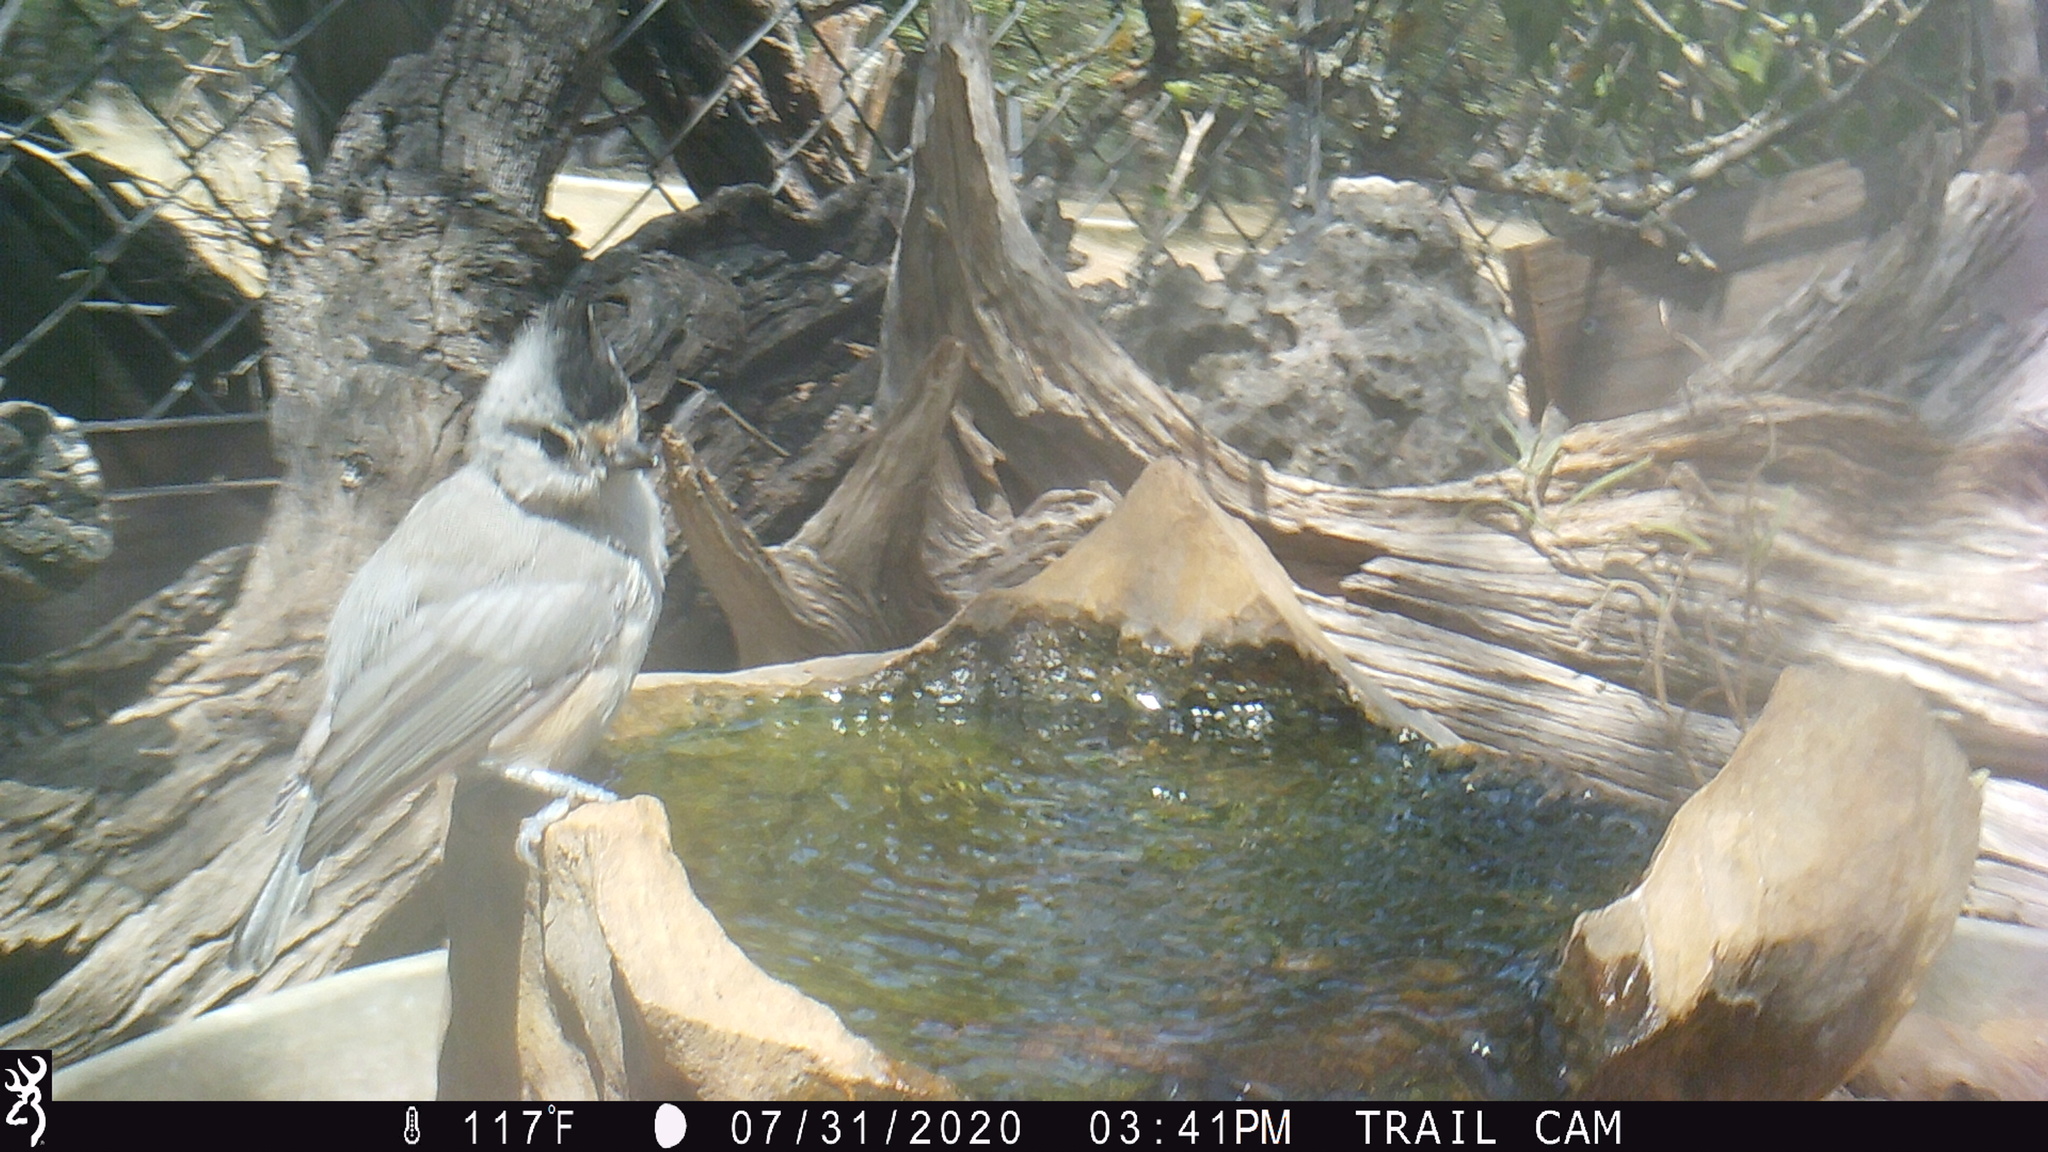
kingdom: Animalia
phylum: Chordata
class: Aves
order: Passeriformes
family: Paridae
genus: Baeolophus
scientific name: Baeolophus atricristatus
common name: Black-crested titmouse
